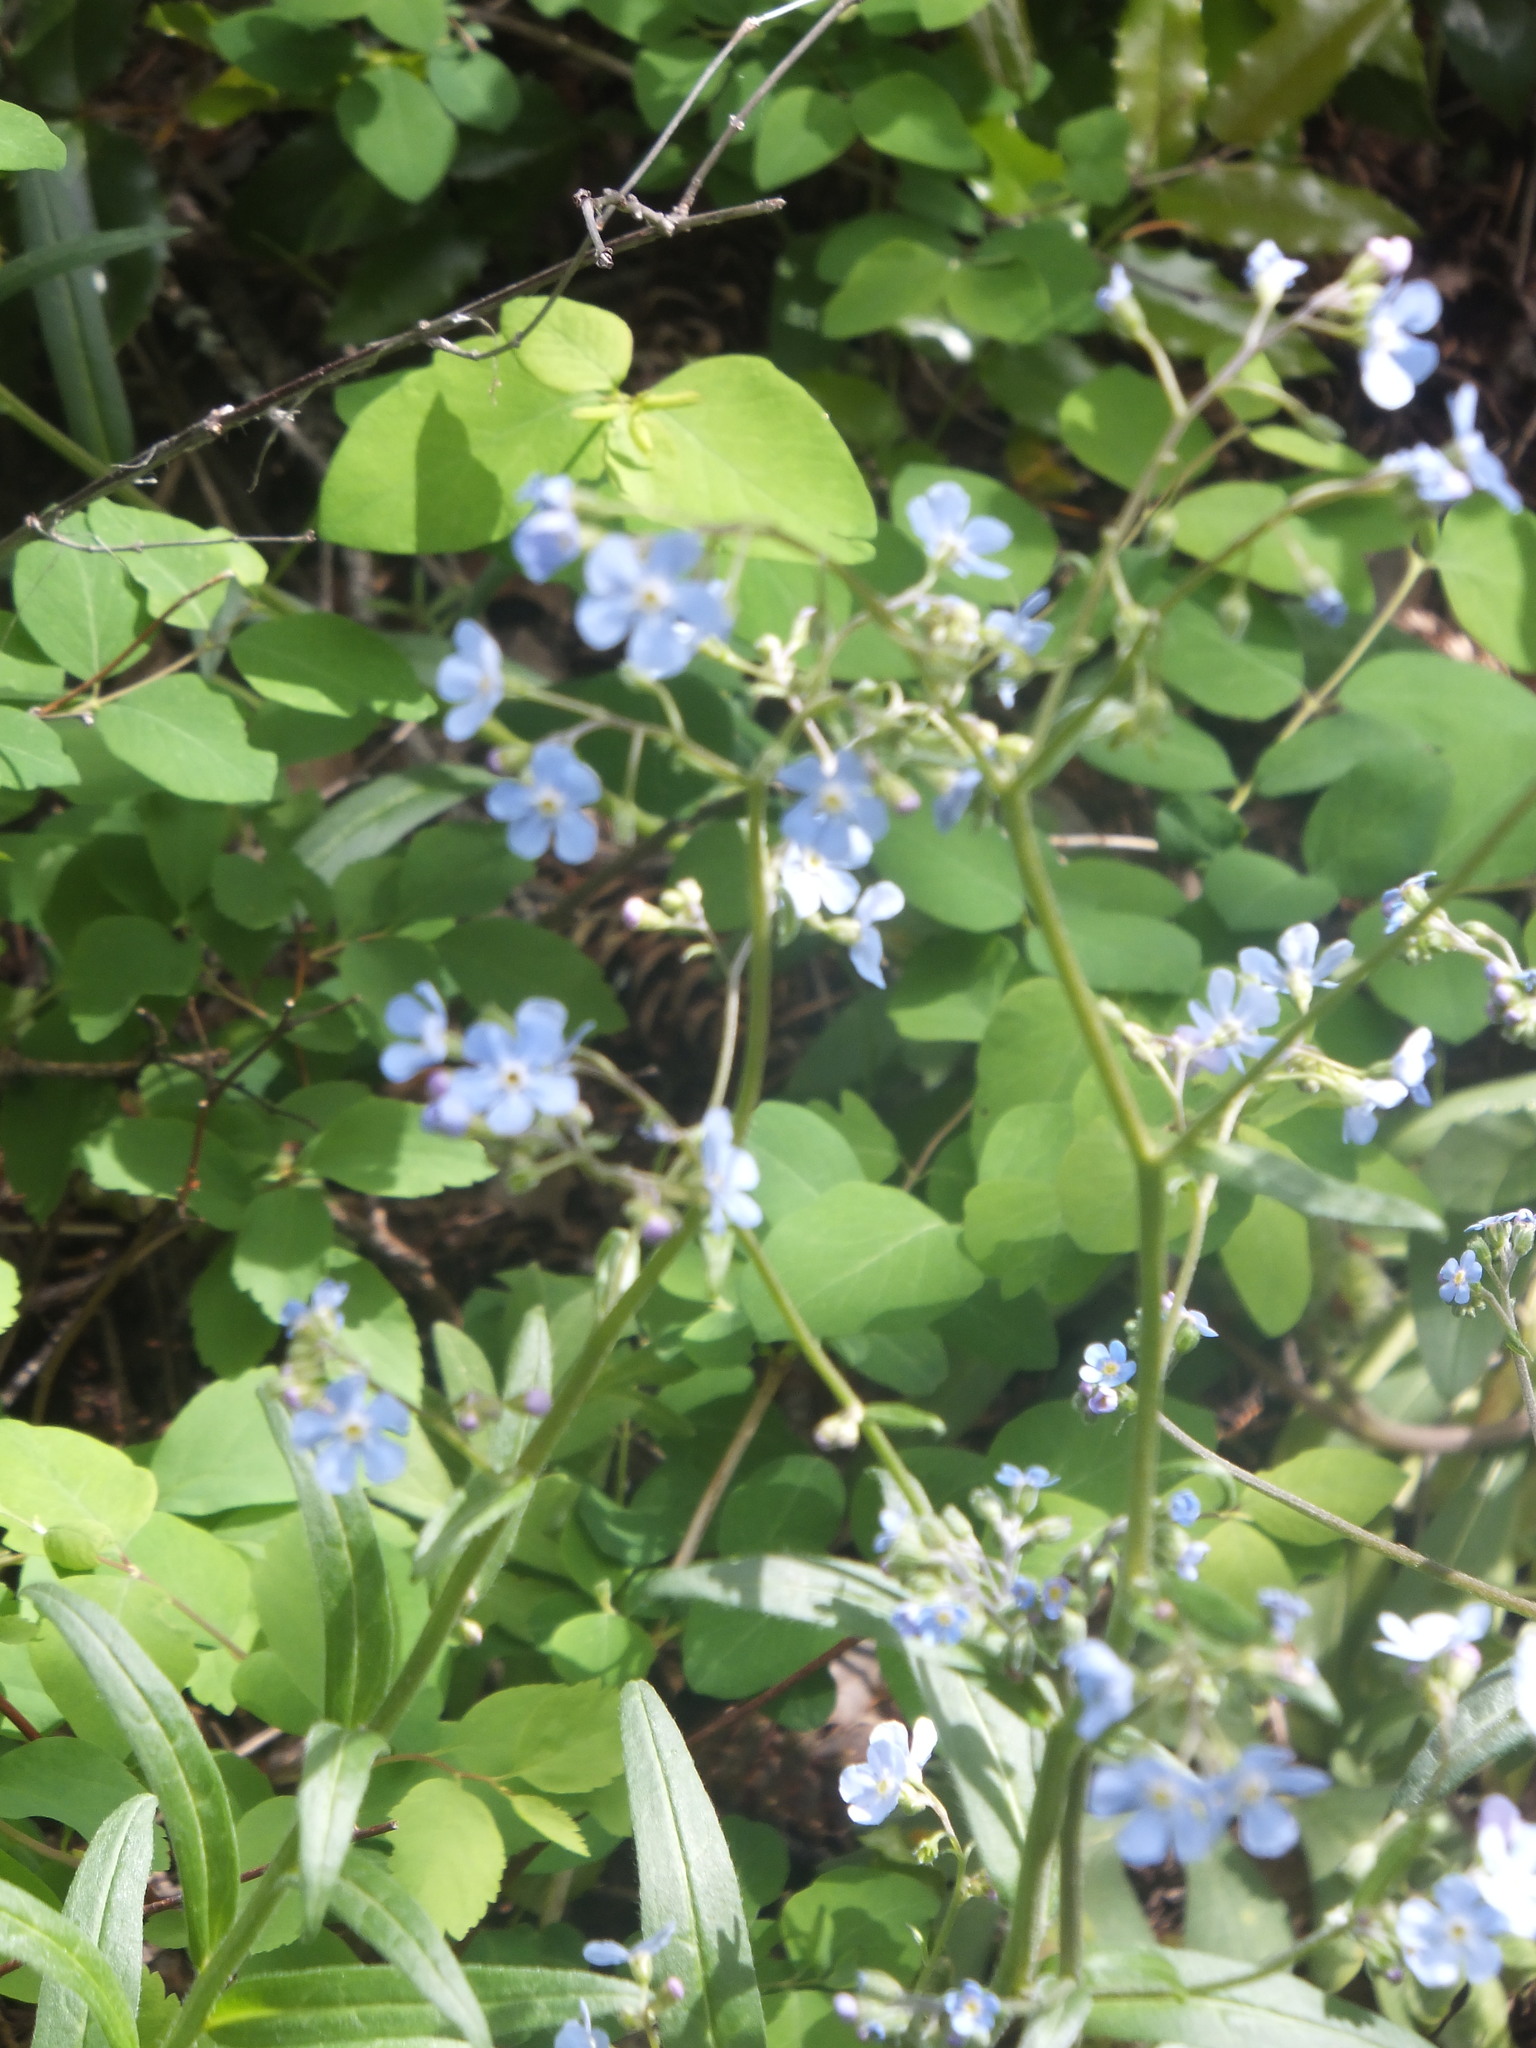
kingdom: Plantae
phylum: Tracheophyta
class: Magnoliopsida
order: Boraginales
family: Boraginaceae
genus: Hackelia
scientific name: Hackelia micrantha
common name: Meadow stickseed
